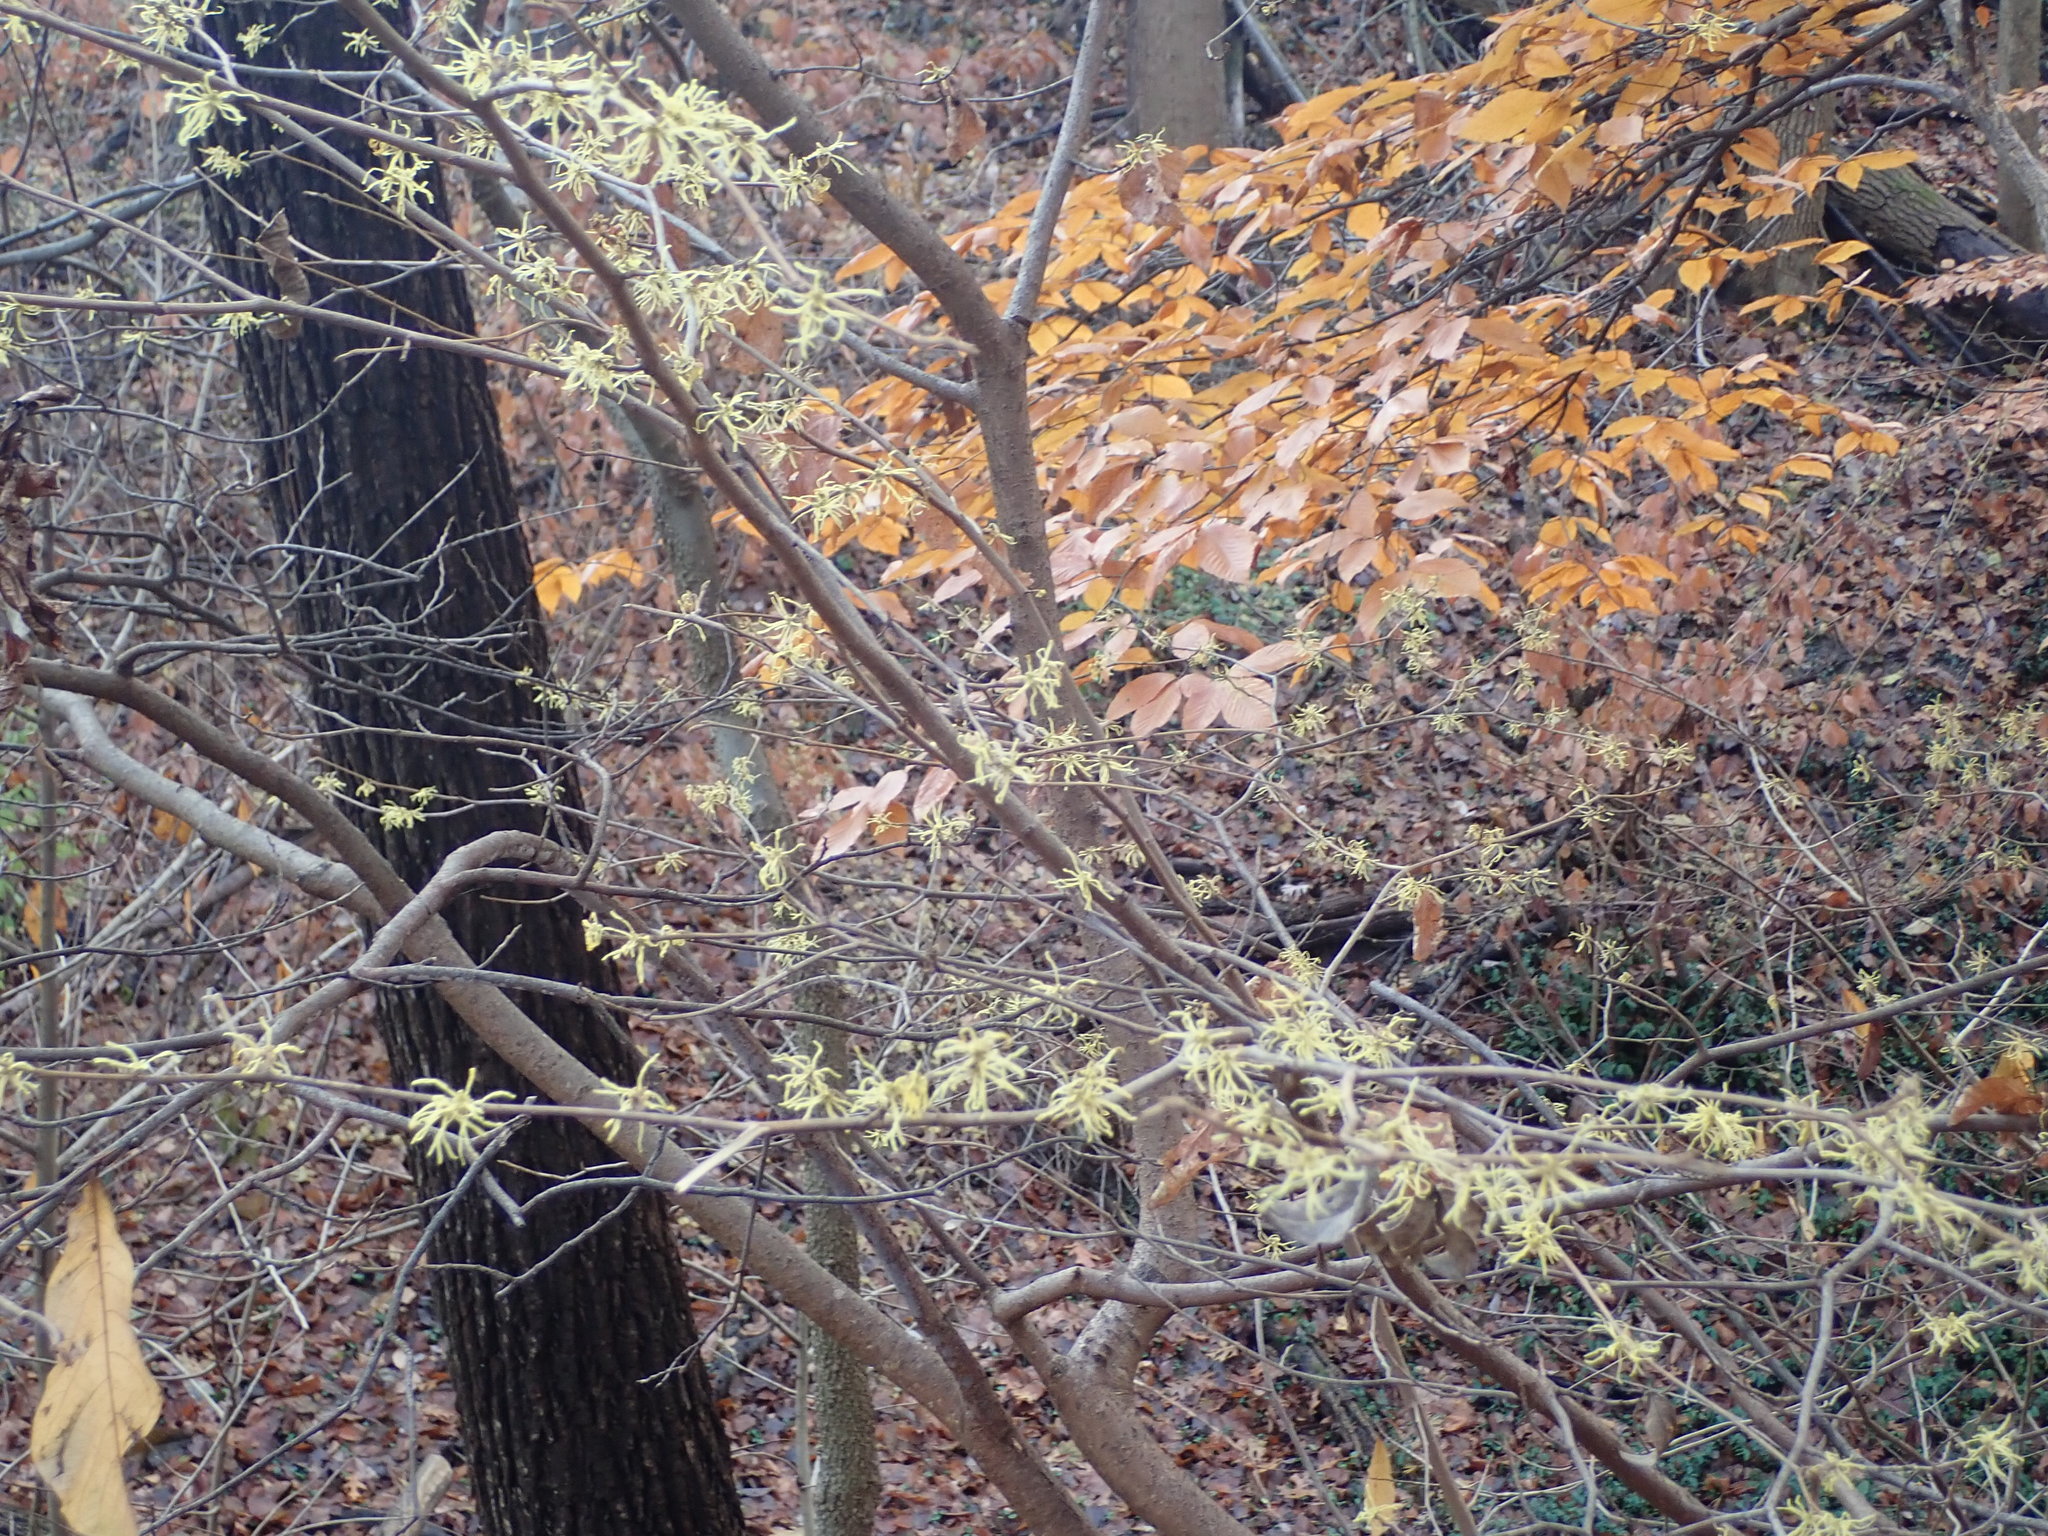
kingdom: Plantae
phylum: Tracheophyta
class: Magnoliopsida
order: Saxifragales
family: Hamamelidaceae
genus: Hamamelis
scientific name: Hamamelis virginiana
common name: Witch-hazel
